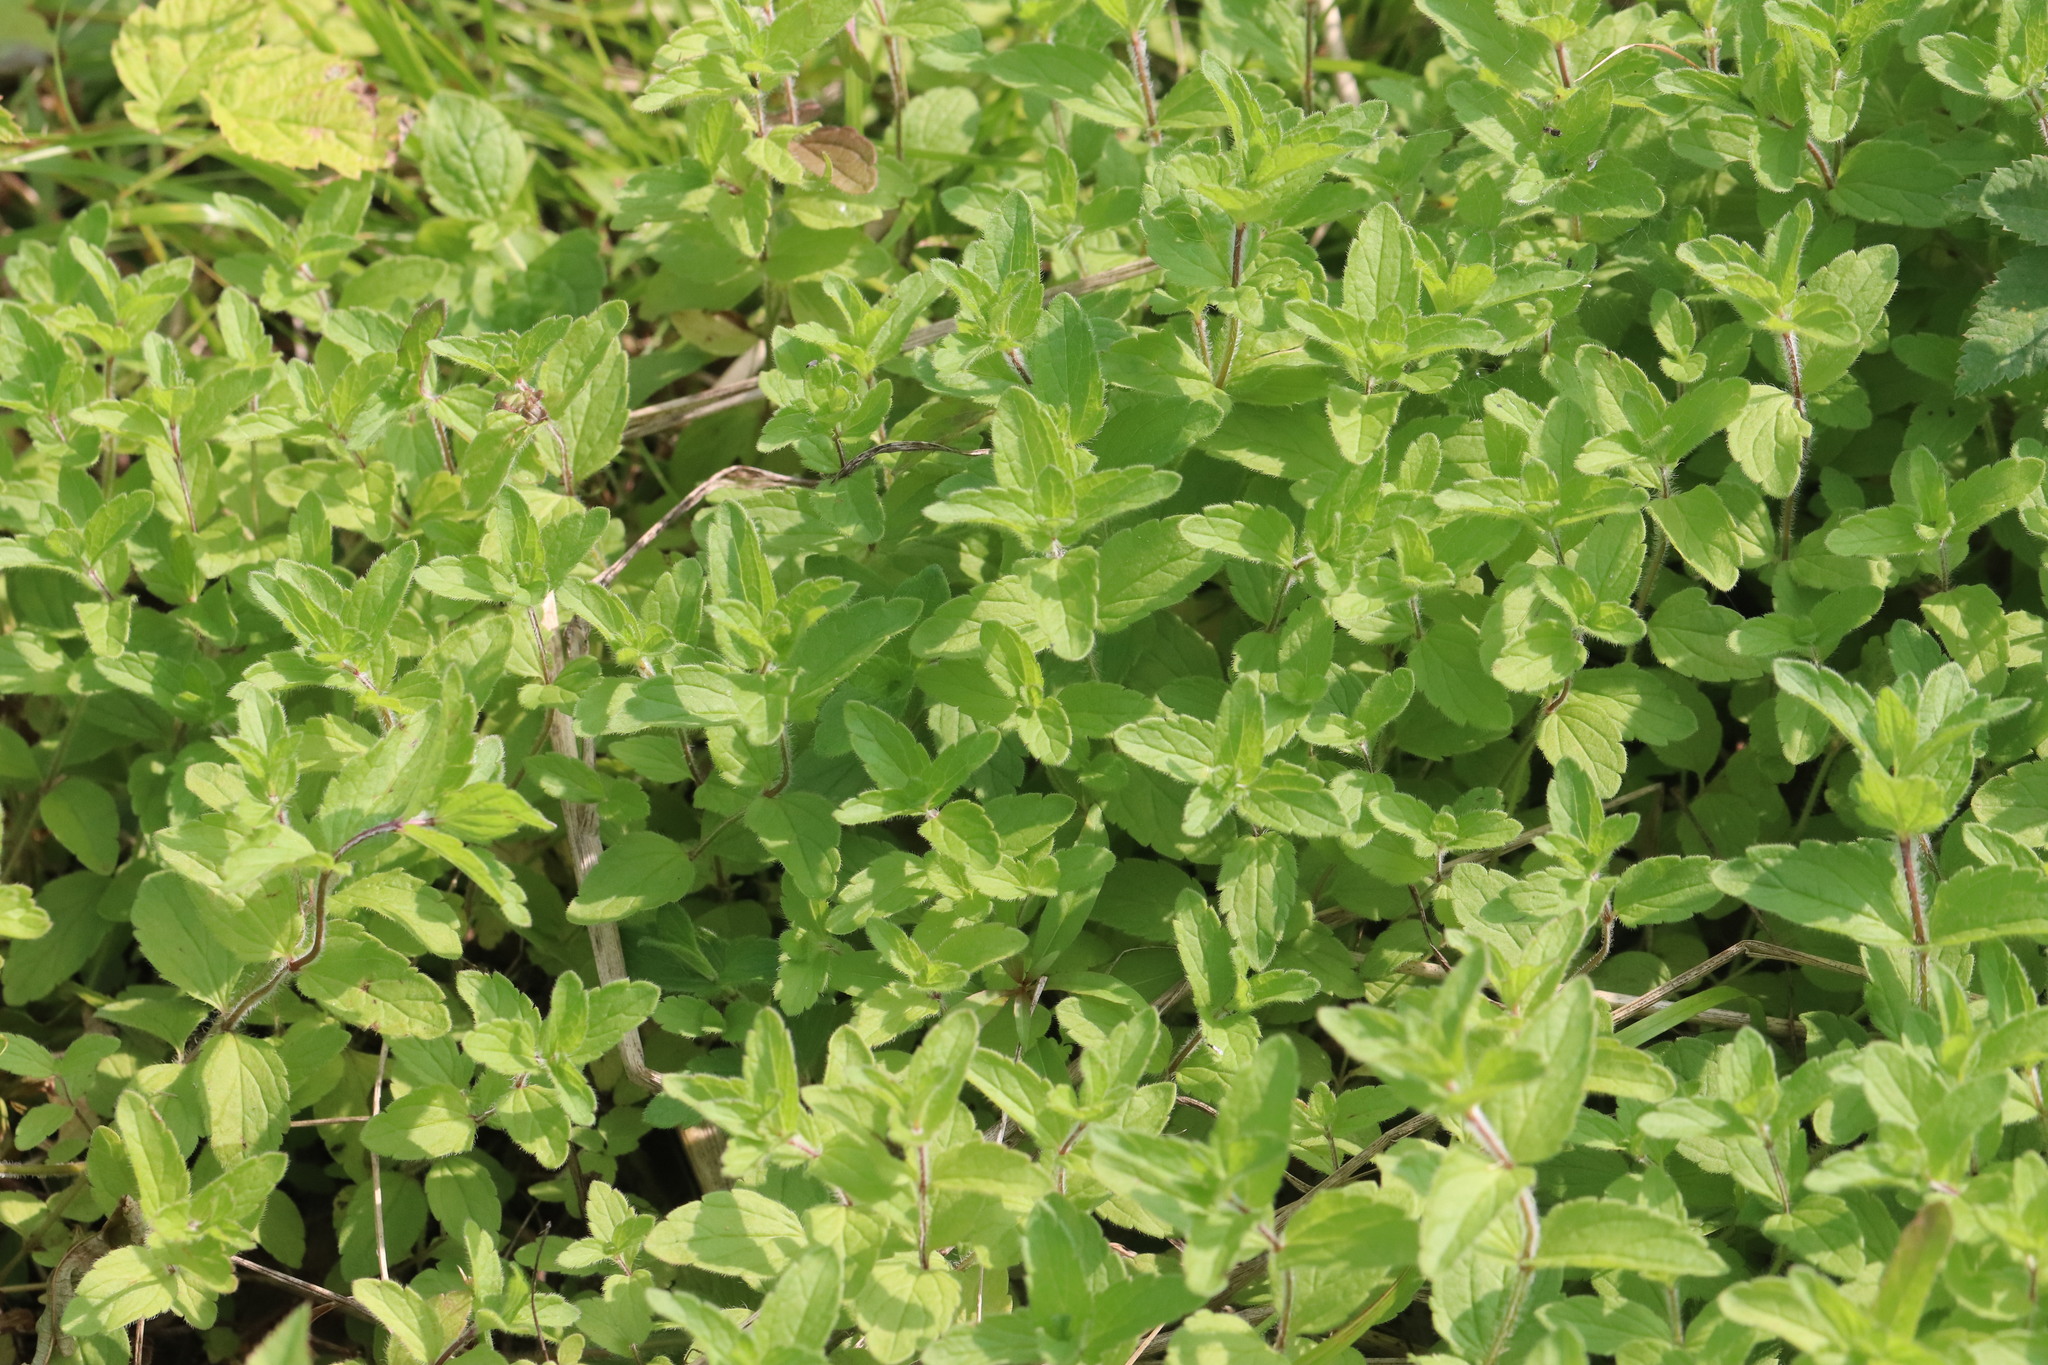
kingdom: Plantae
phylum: Tracheophyta
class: Magnoliopsida
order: Lamiales
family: Plantaginaceae
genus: Veronica
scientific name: Veronica chamaedrys
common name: Germander speedwell
